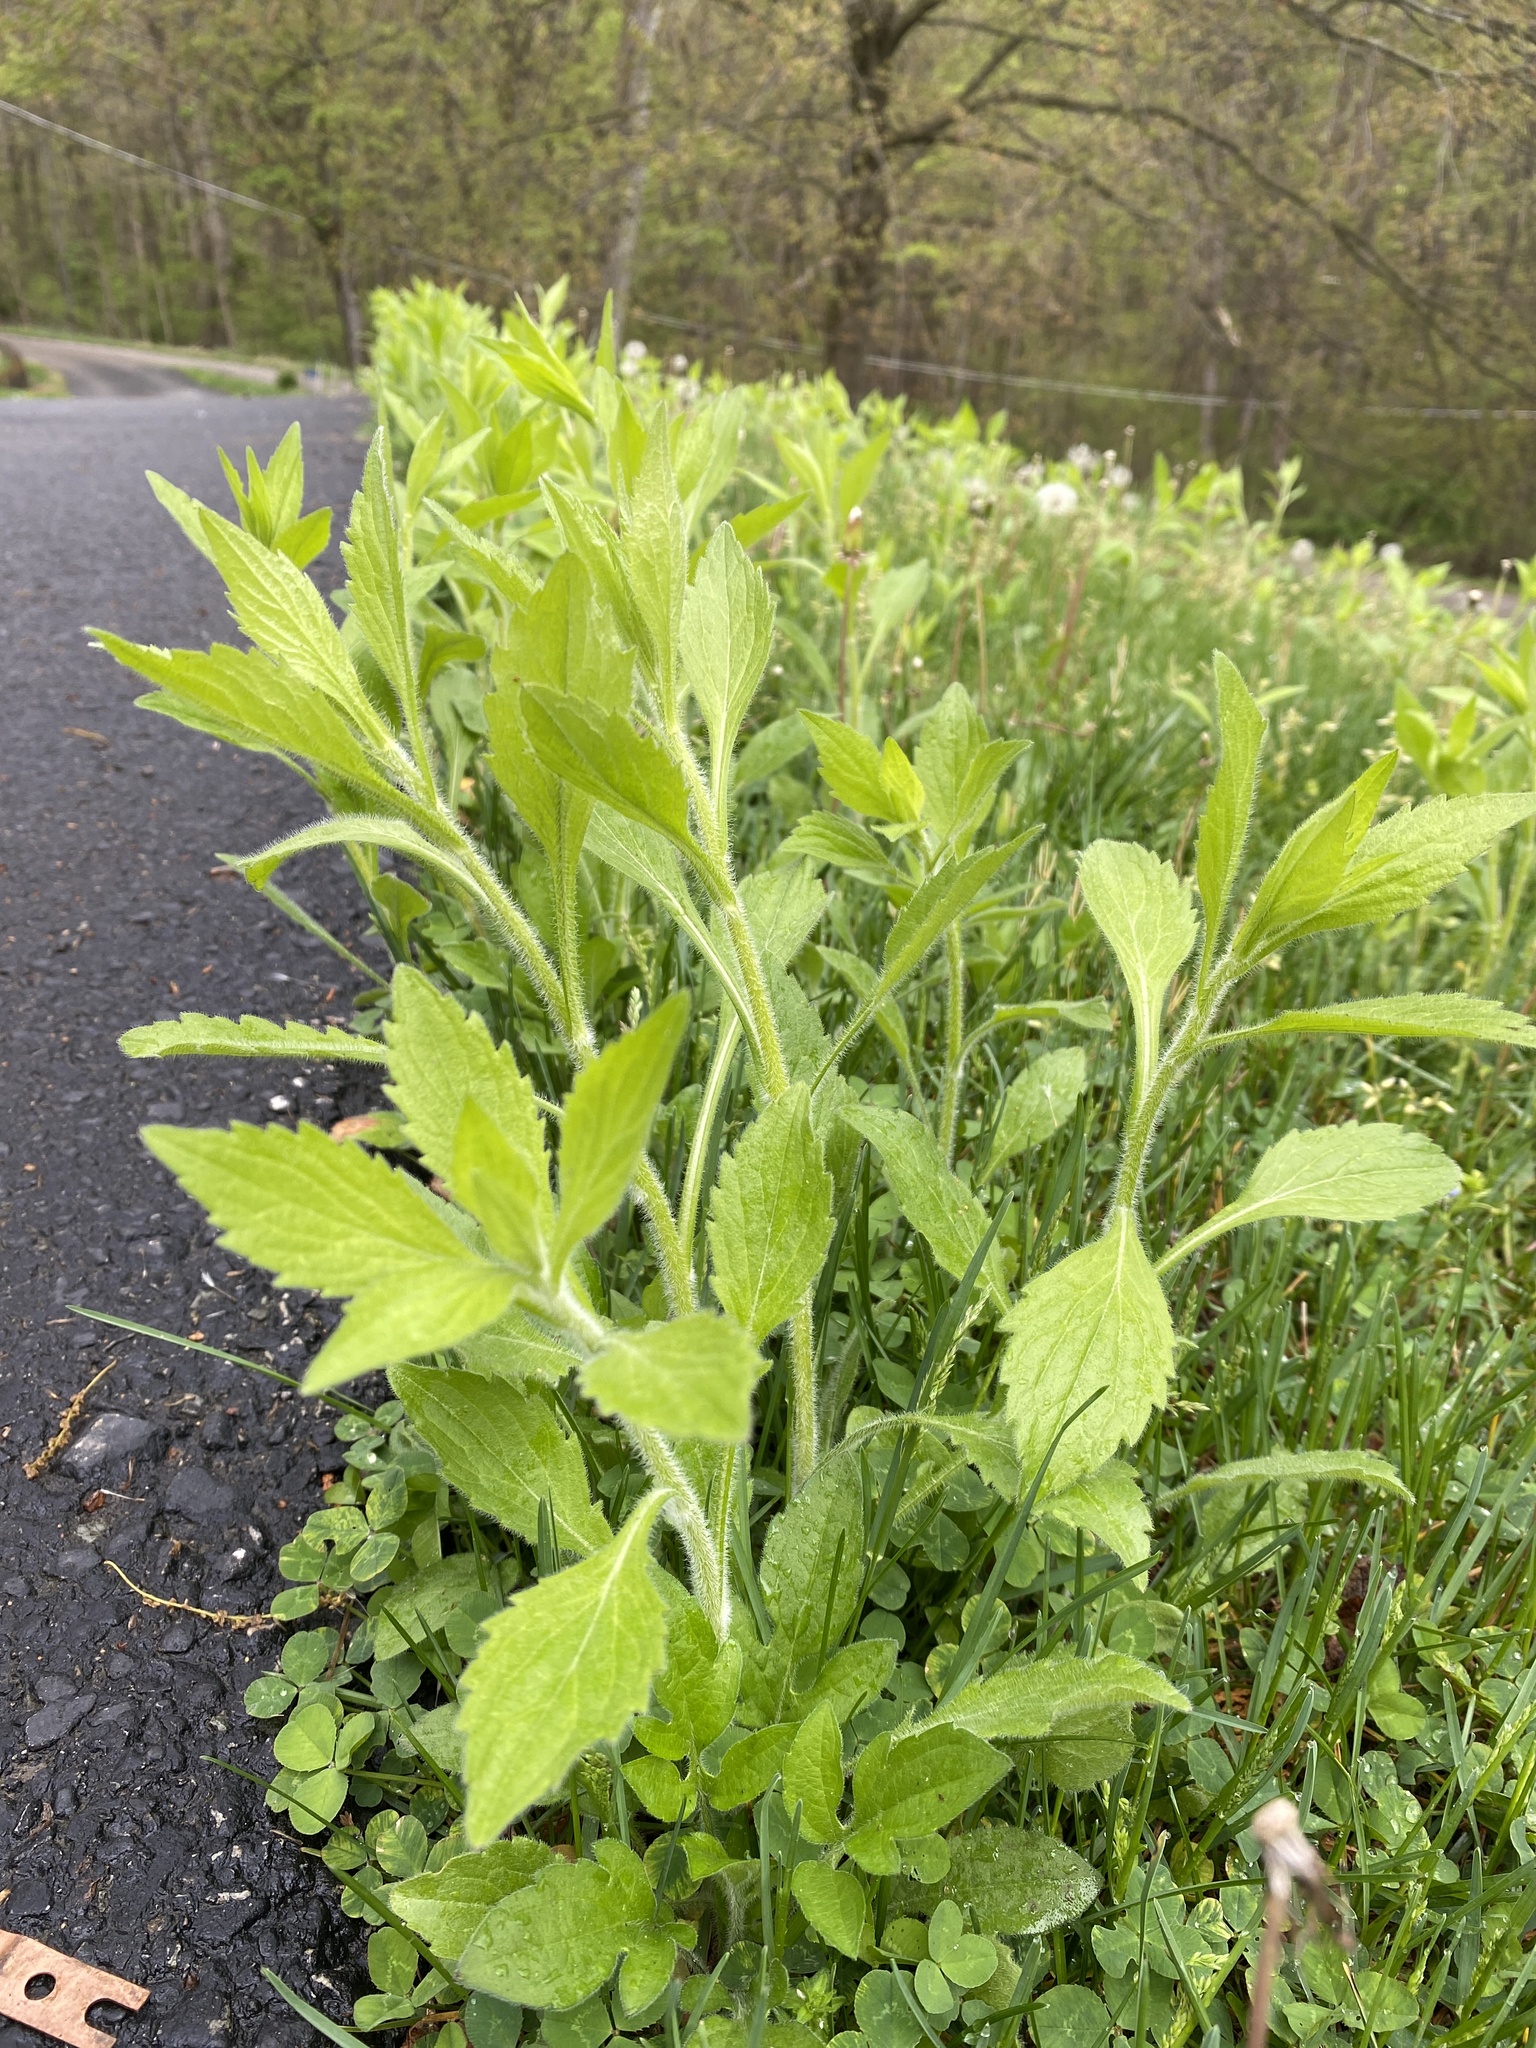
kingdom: Plantae
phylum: Tracheophyta
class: Magnoliopsida
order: Asterales
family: Asteraceae
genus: Erigeron
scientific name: Erigeron annuus
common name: Tall fleabane
